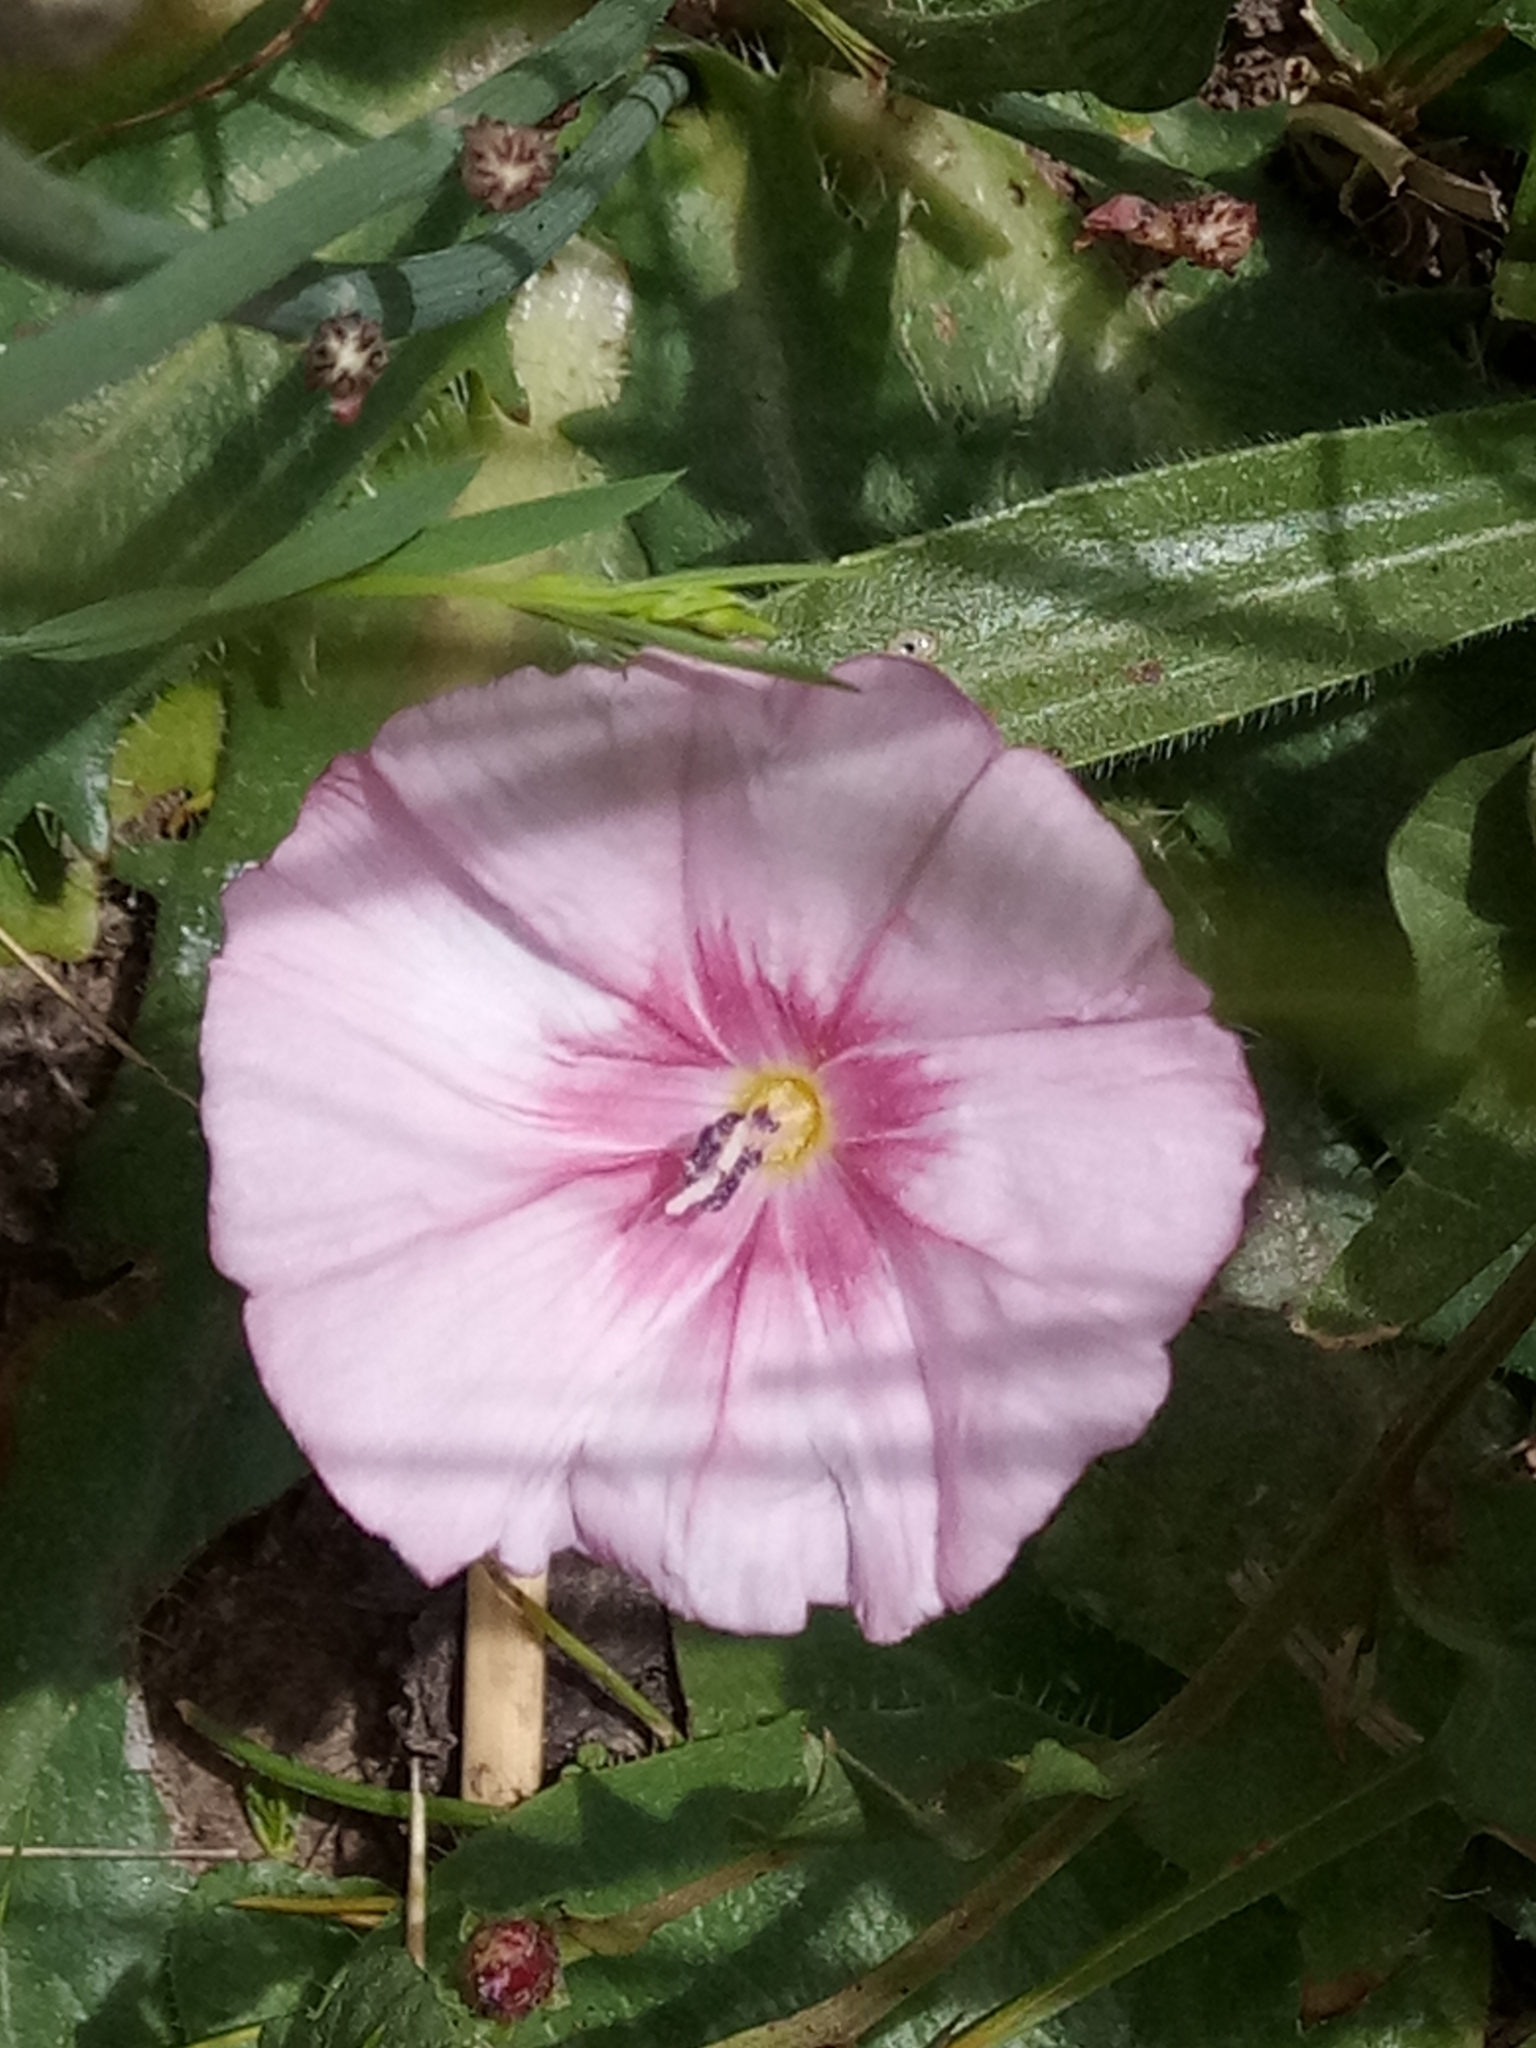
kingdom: Plantae
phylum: Tracheophyta
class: Magnoliopsida
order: Solanales
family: Convolvulaceae
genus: Convolvulus
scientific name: Convolvulus durandoi
